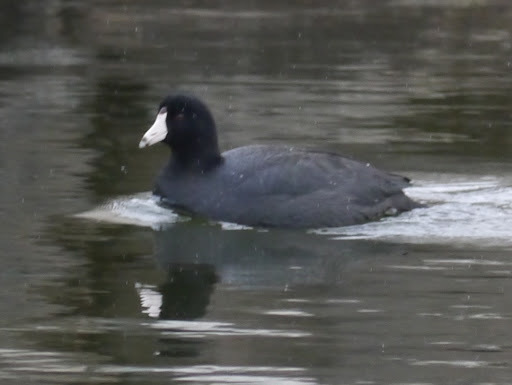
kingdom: Animalia
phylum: Chordata
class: Aves
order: Gruiformes
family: Rallidae
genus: Fulica
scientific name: Fulica americana
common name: American coot
